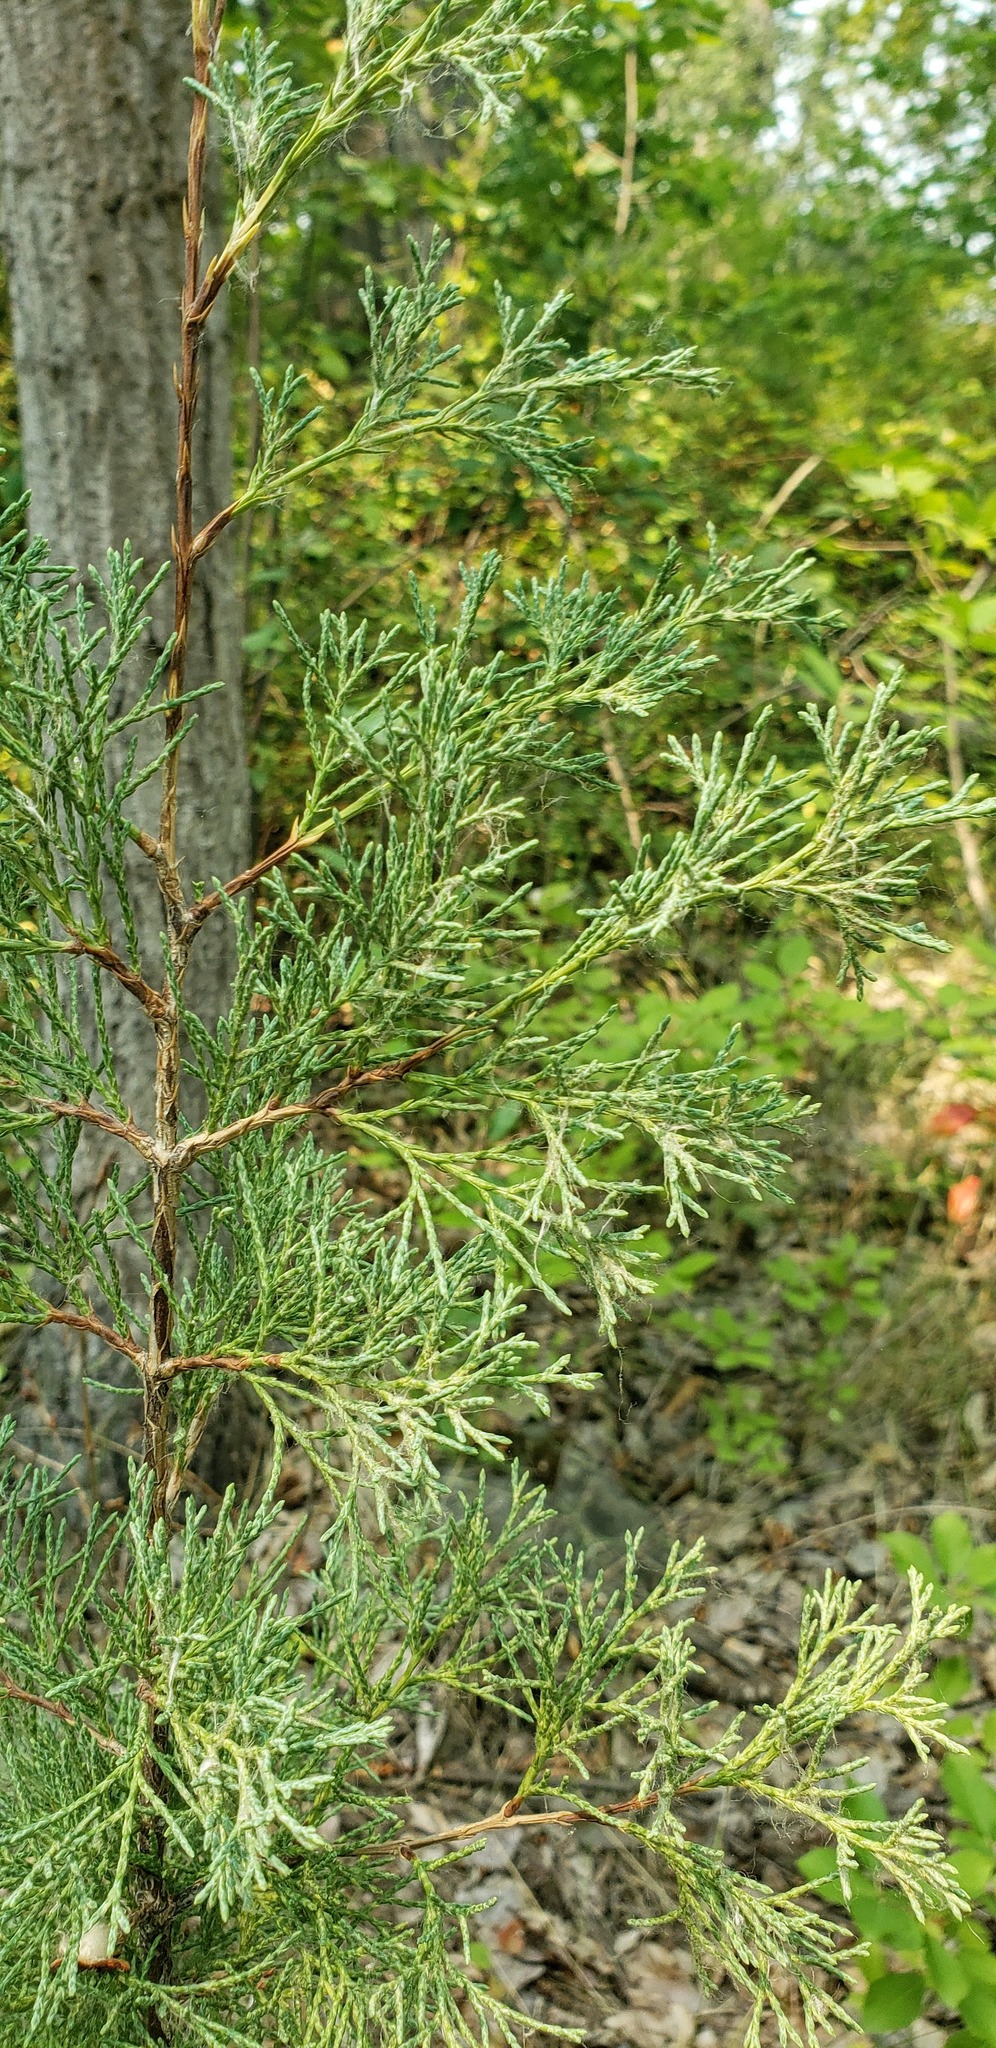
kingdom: Plantae
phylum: Tracheophyta
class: Pinopsida
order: Pinales
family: Cupressaceae
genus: Juniperus
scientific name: Juniperus scopulorum
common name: Rocky mountain juniper
